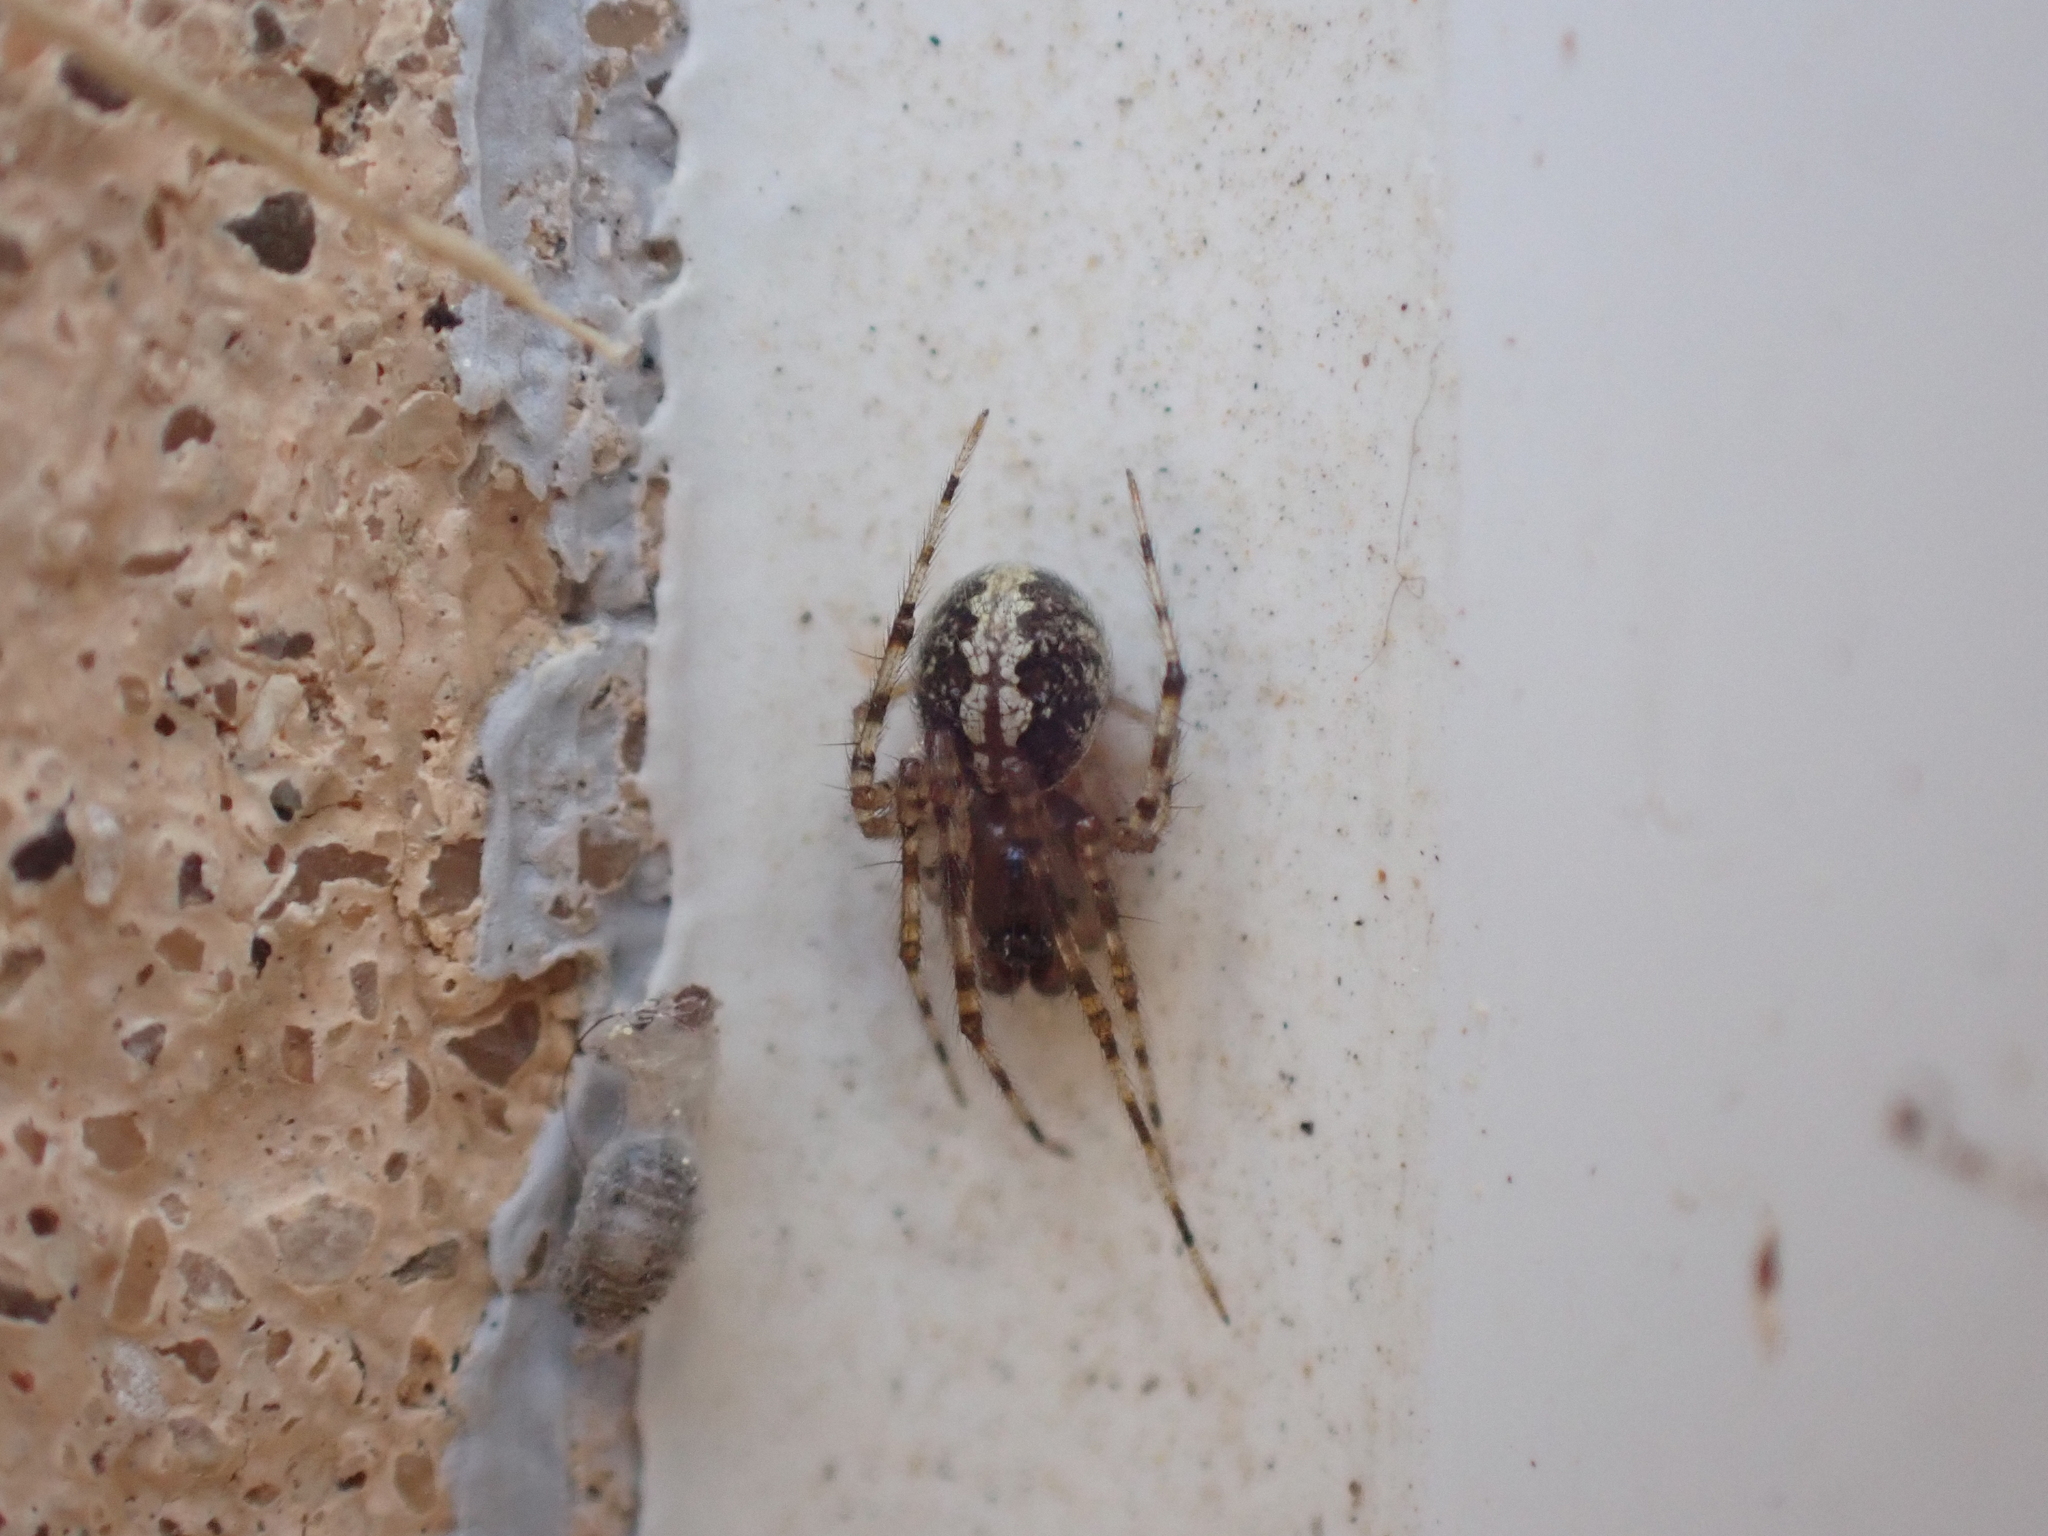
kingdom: Animalia
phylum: Arthropoda
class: Arachnida
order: Araneae
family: Theridiidae
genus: Theridion
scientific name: Theridion
